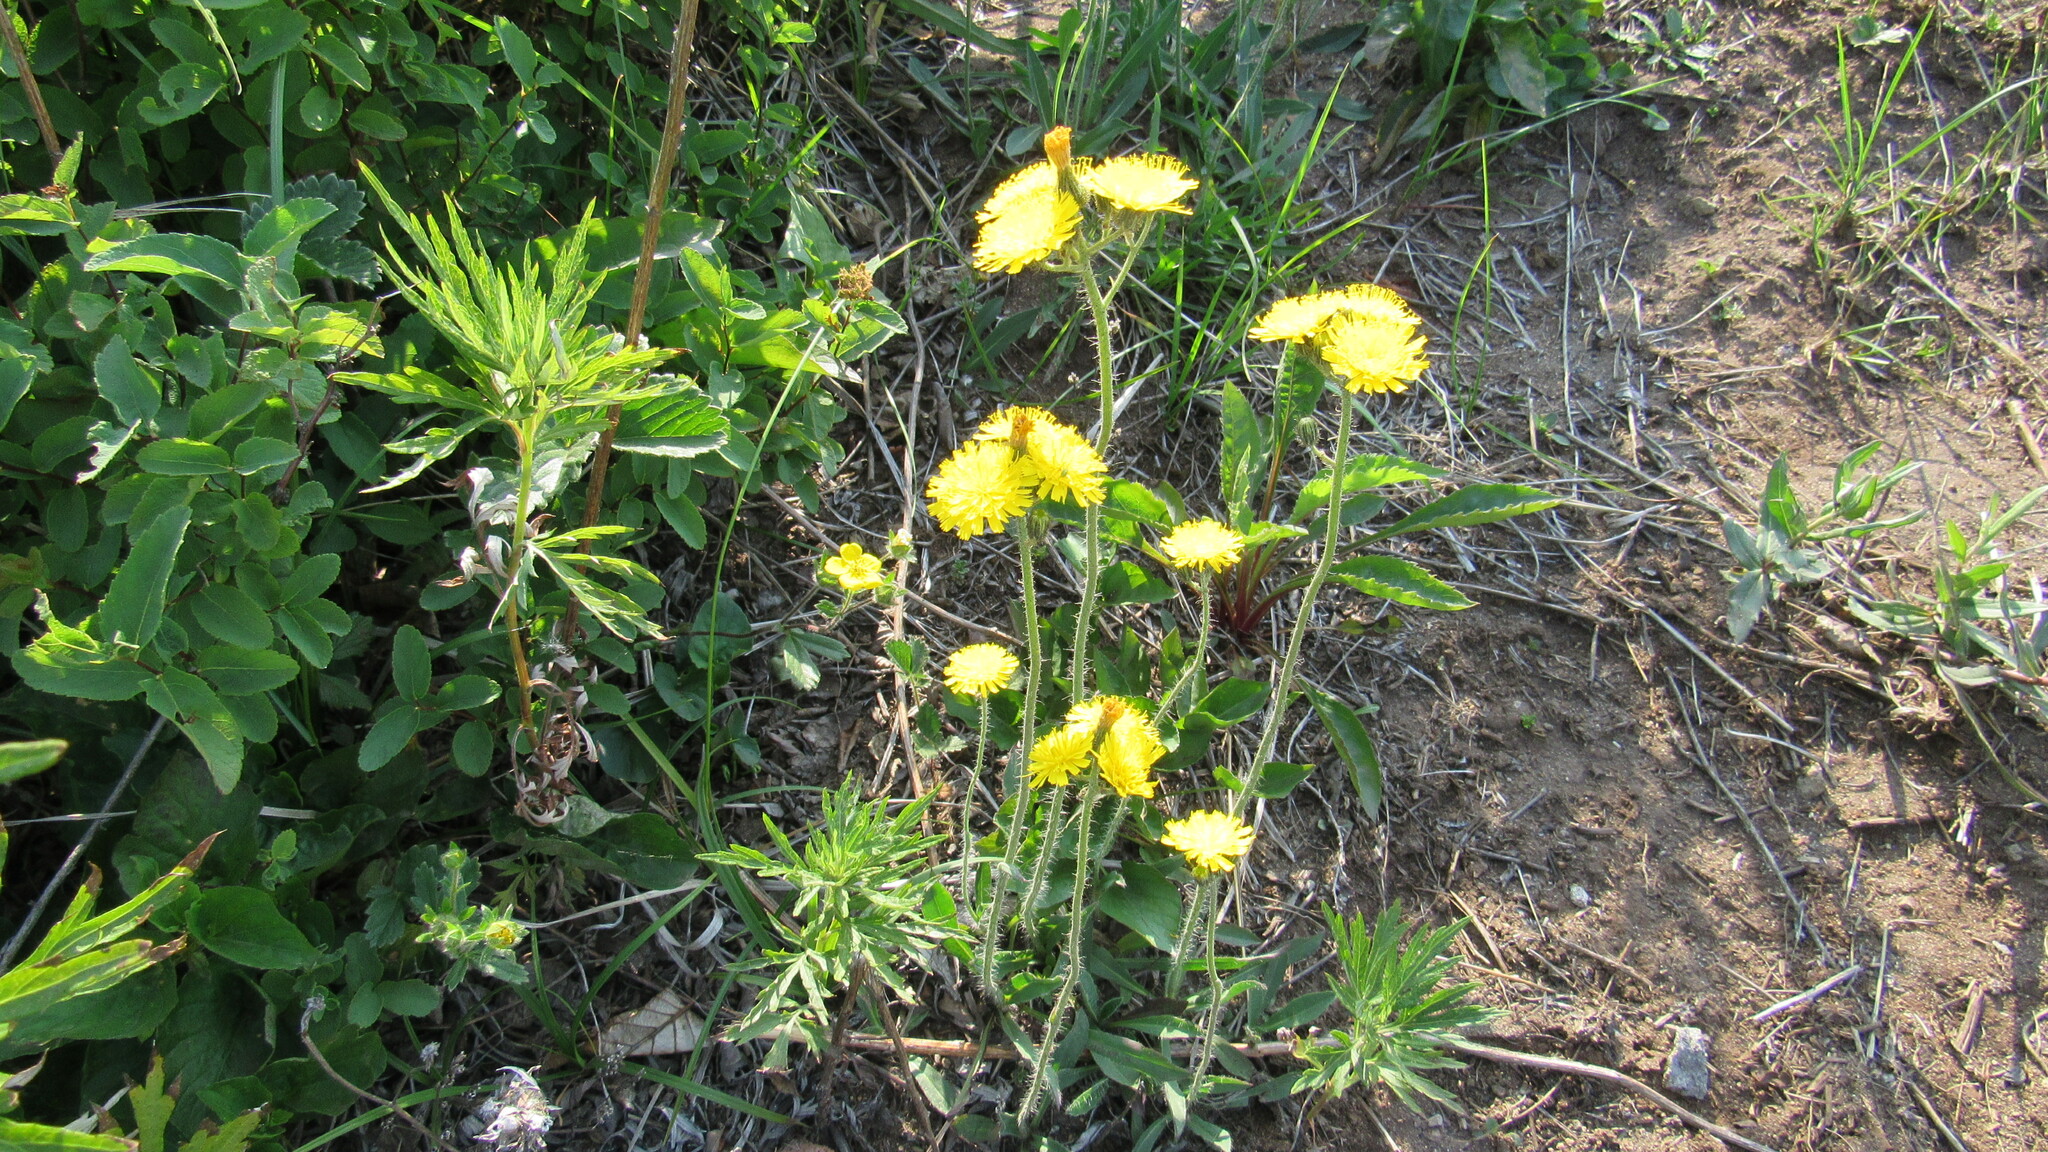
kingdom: Plantae
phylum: Tracheophyta
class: Magnoliopsida
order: Asterales
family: Asteraceae
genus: Pilosella
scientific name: Pilosella floribunda
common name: Glaucous hawkweed
